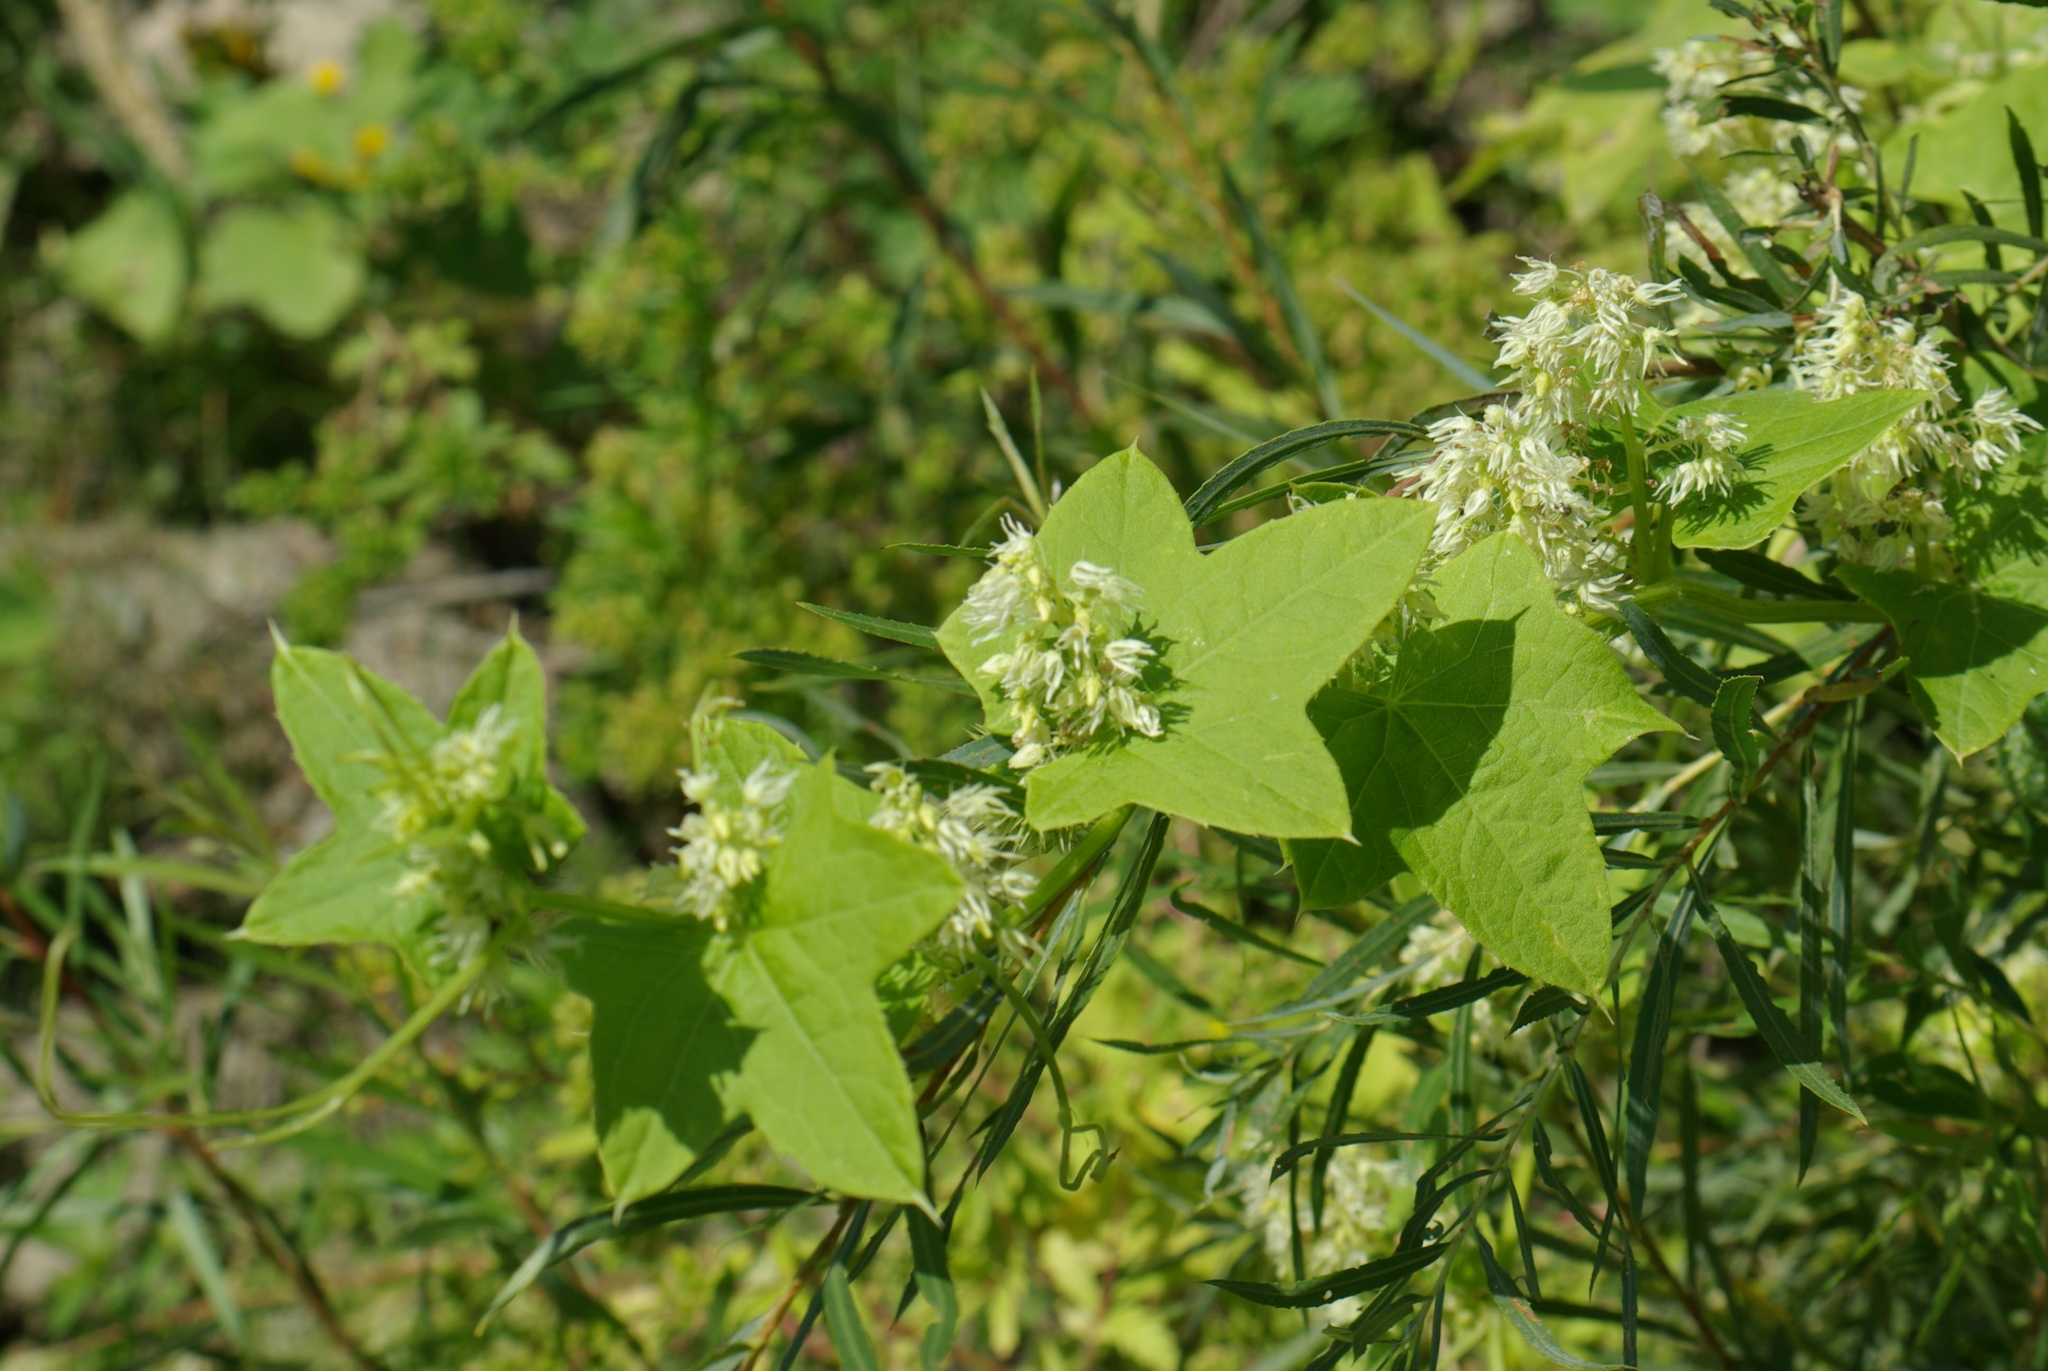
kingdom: Plantae
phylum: Tracheophyta
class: Magnoliopsida
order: Cucurbitales
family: Cucurbitaceae
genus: Echinocystis
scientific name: Echinocystis lobata
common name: Wild cucumber
